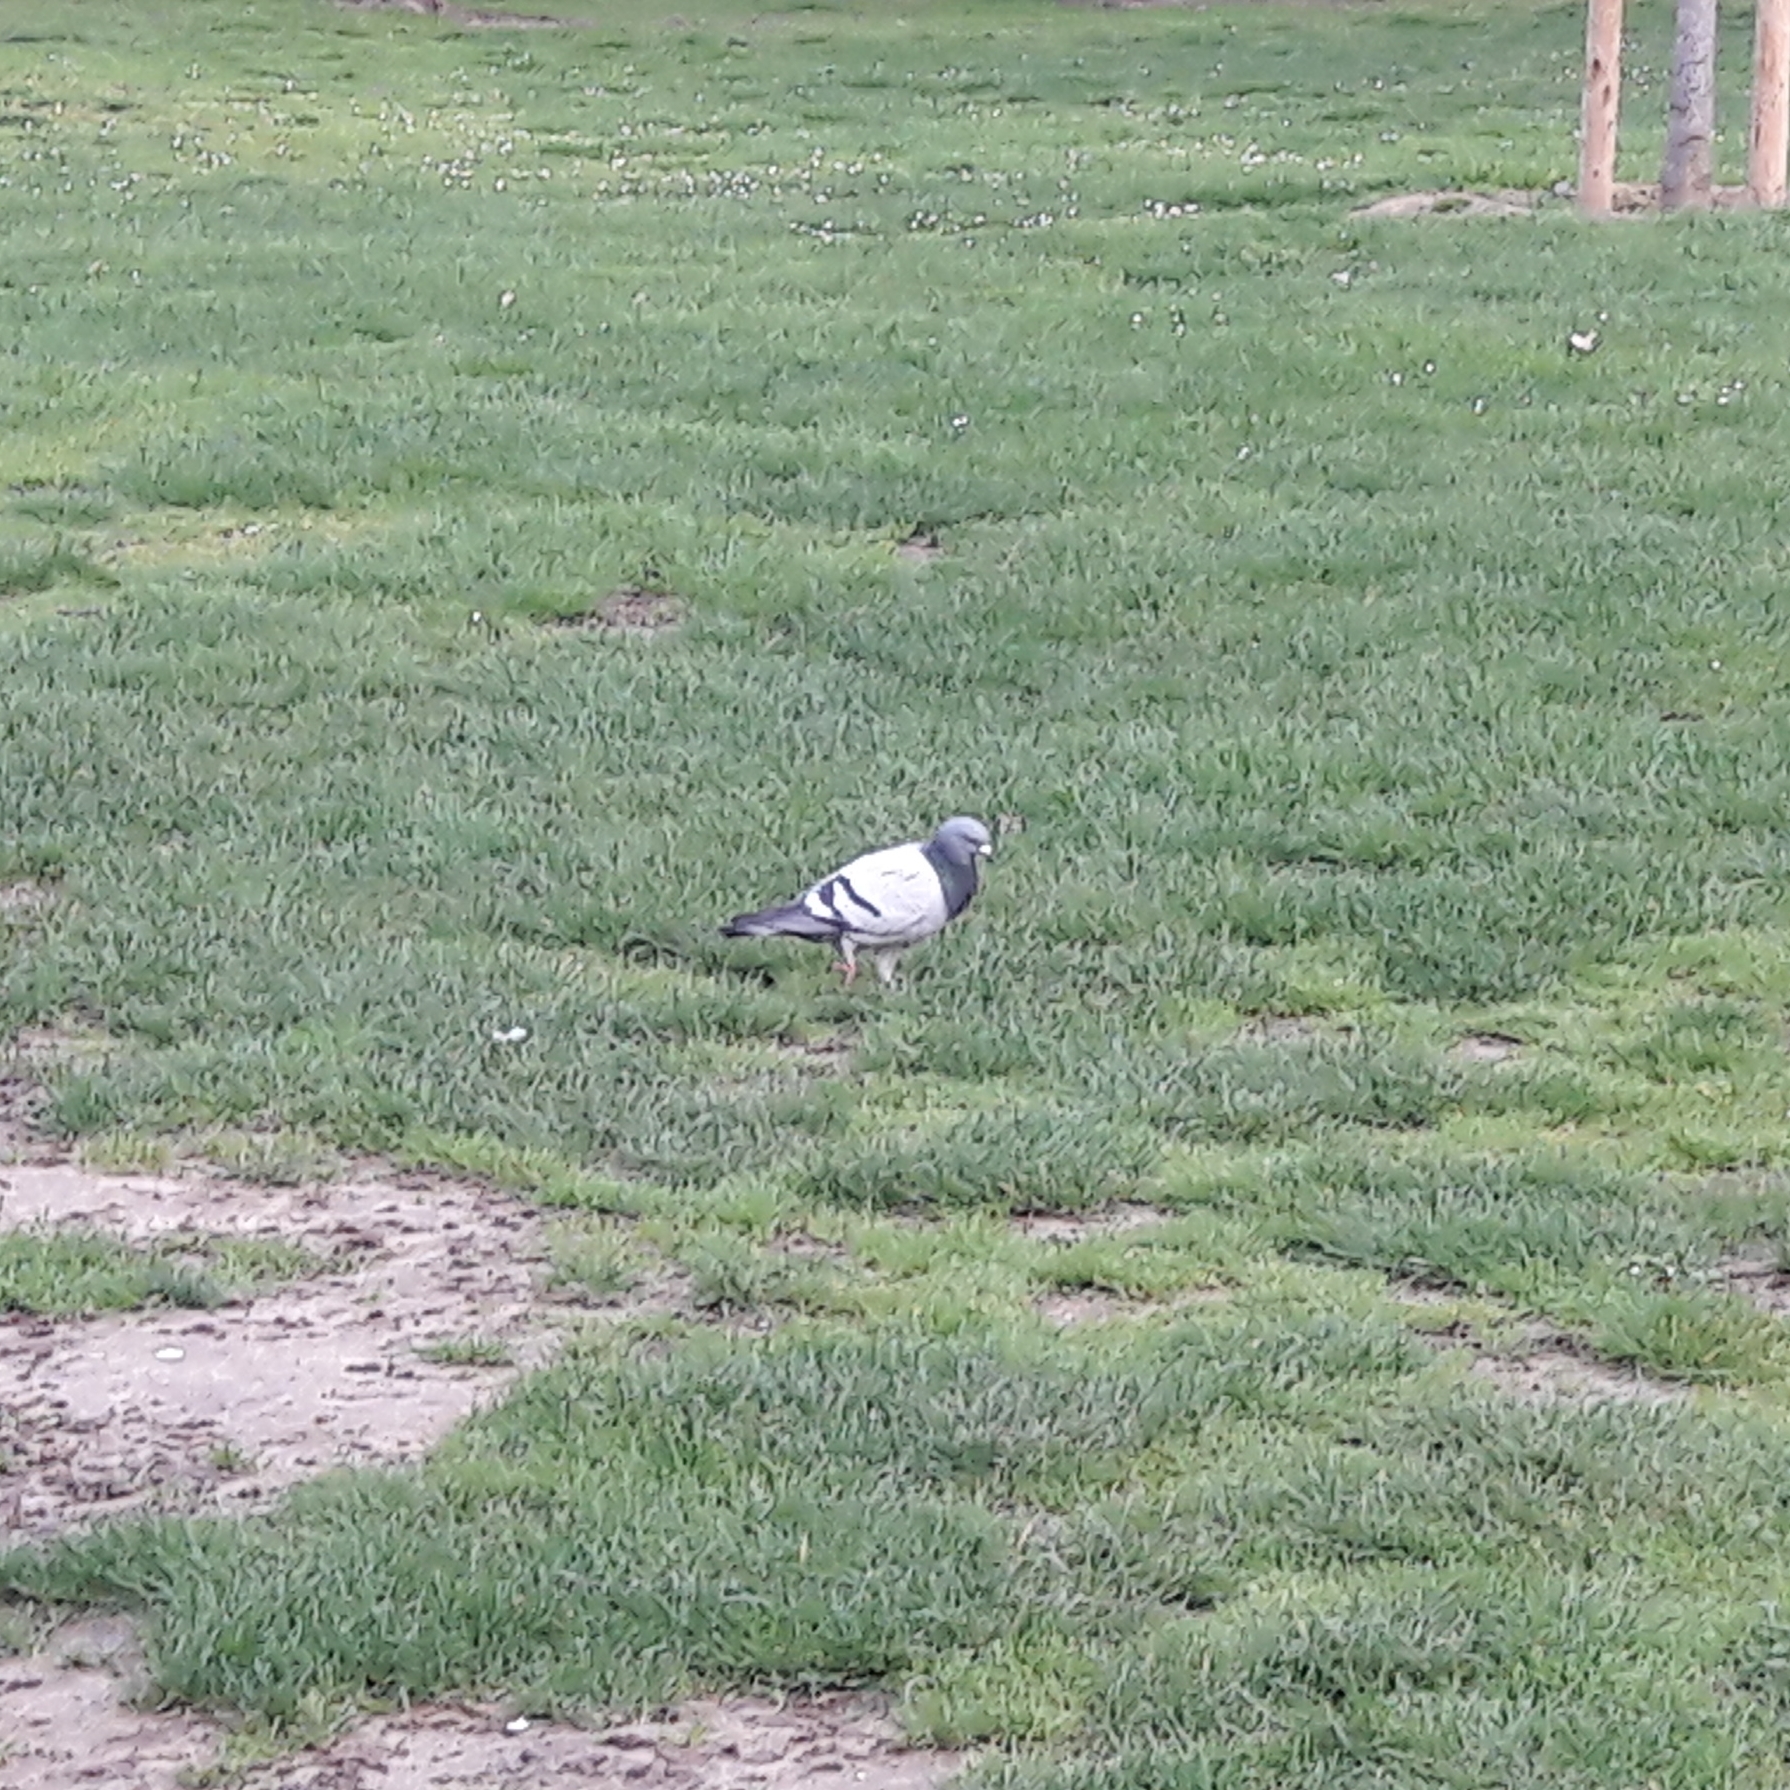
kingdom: Animalia
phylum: Chordata
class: Aves
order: Columbiformes
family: Columbidae
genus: Columba
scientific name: Columba livia
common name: Rock pigeon
